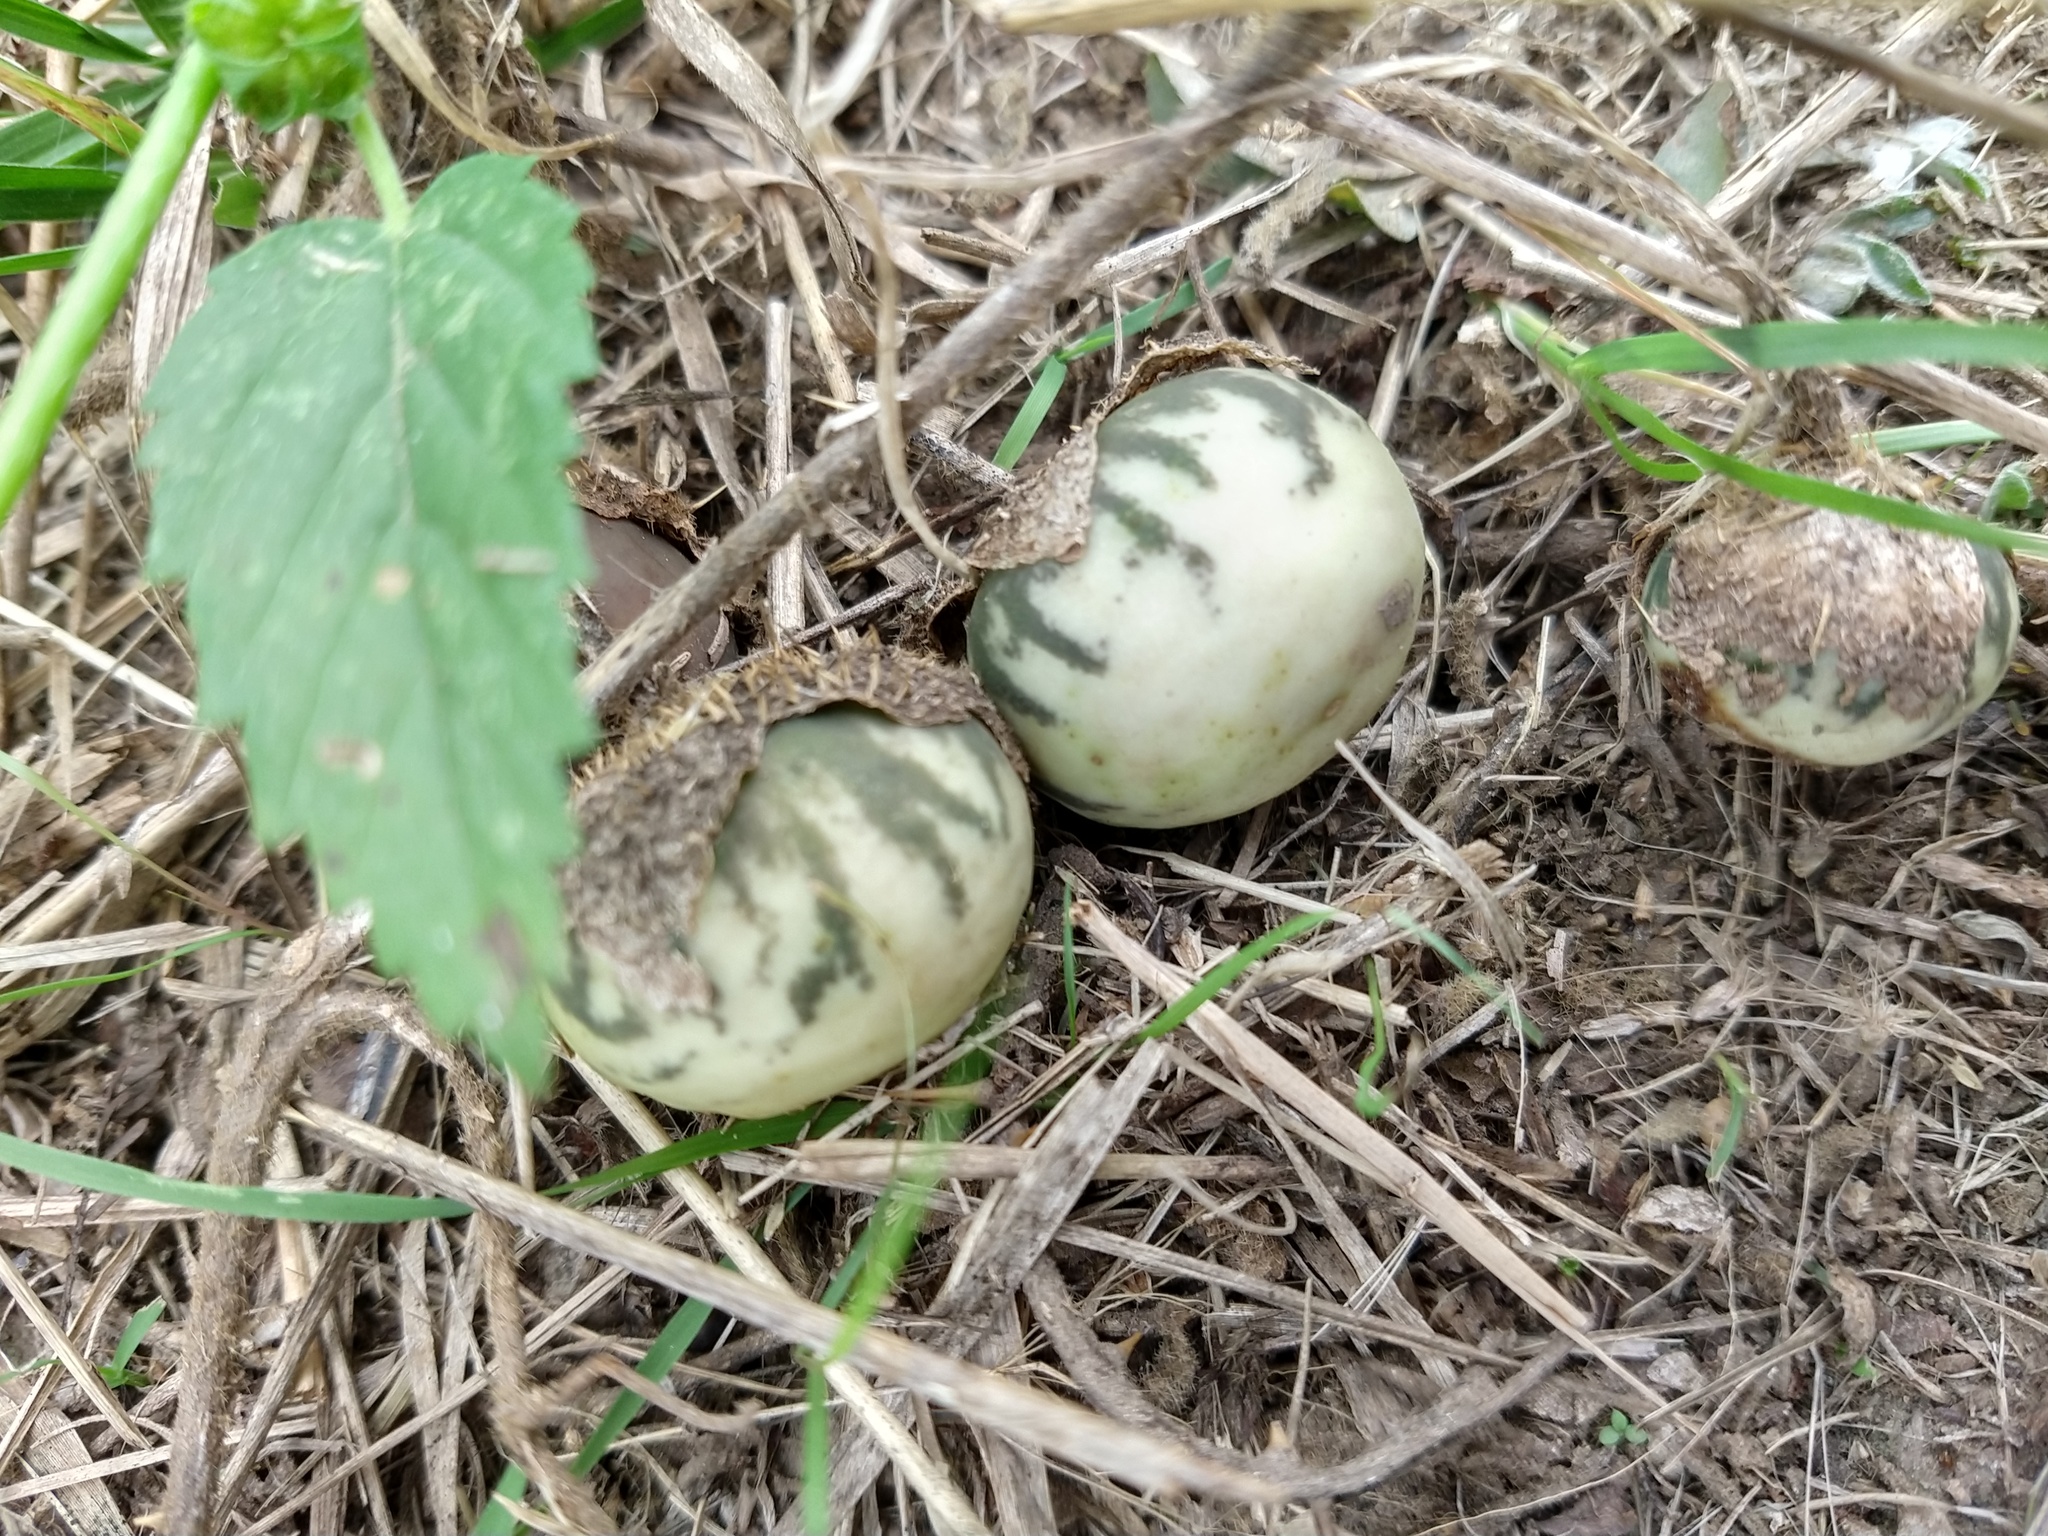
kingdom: Plantae
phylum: Tracheophyta
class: Magnoliopsida
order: Solanales
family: Solanaceae
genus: Solanum
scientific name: Solanum palinacanthum
